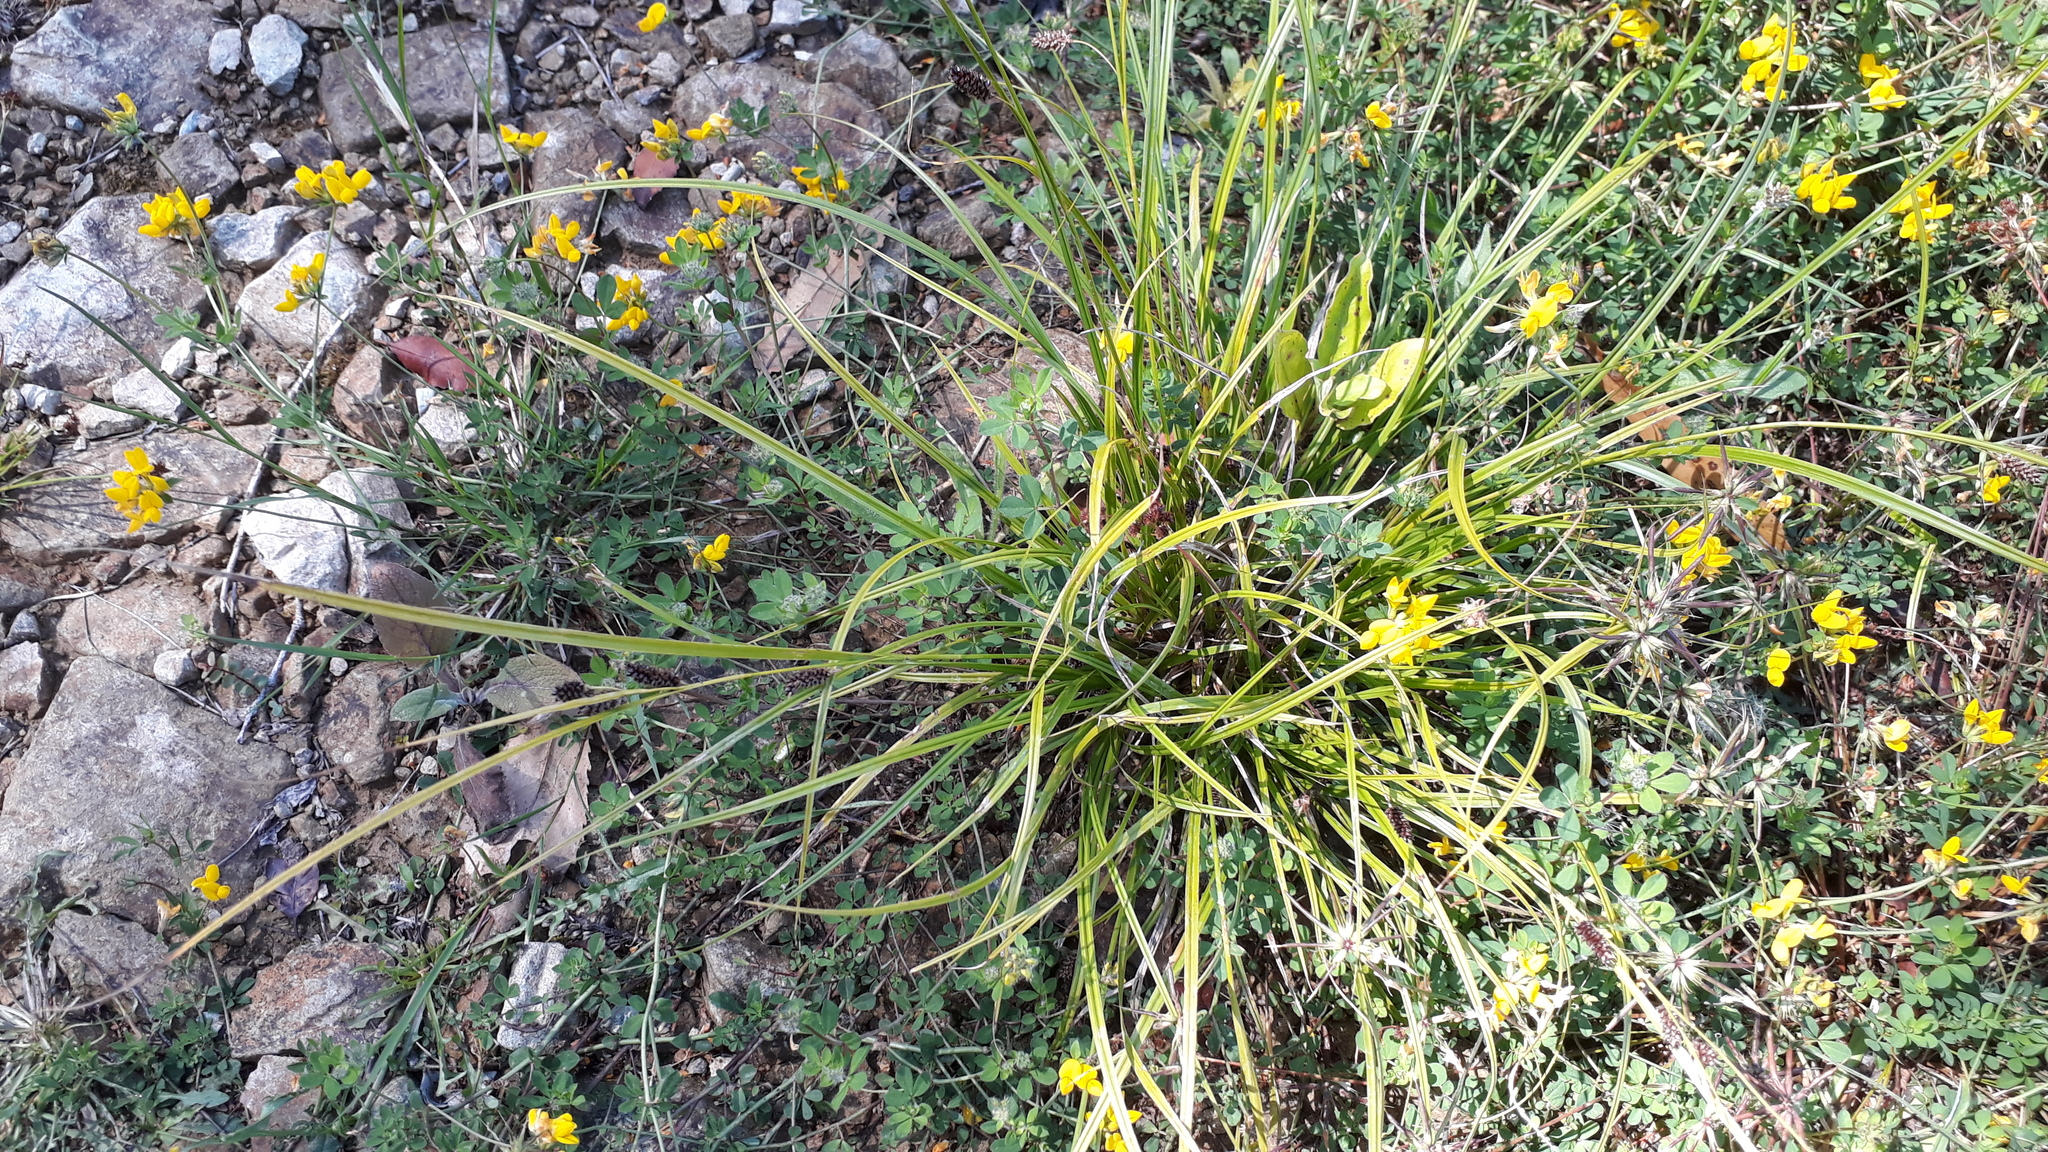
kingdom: Plantae
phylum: Tracheophyta
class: Liliopsida
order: Poales
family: Juncaceae
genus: Juncus
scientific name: Juncus bufonius
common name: Toad rush
